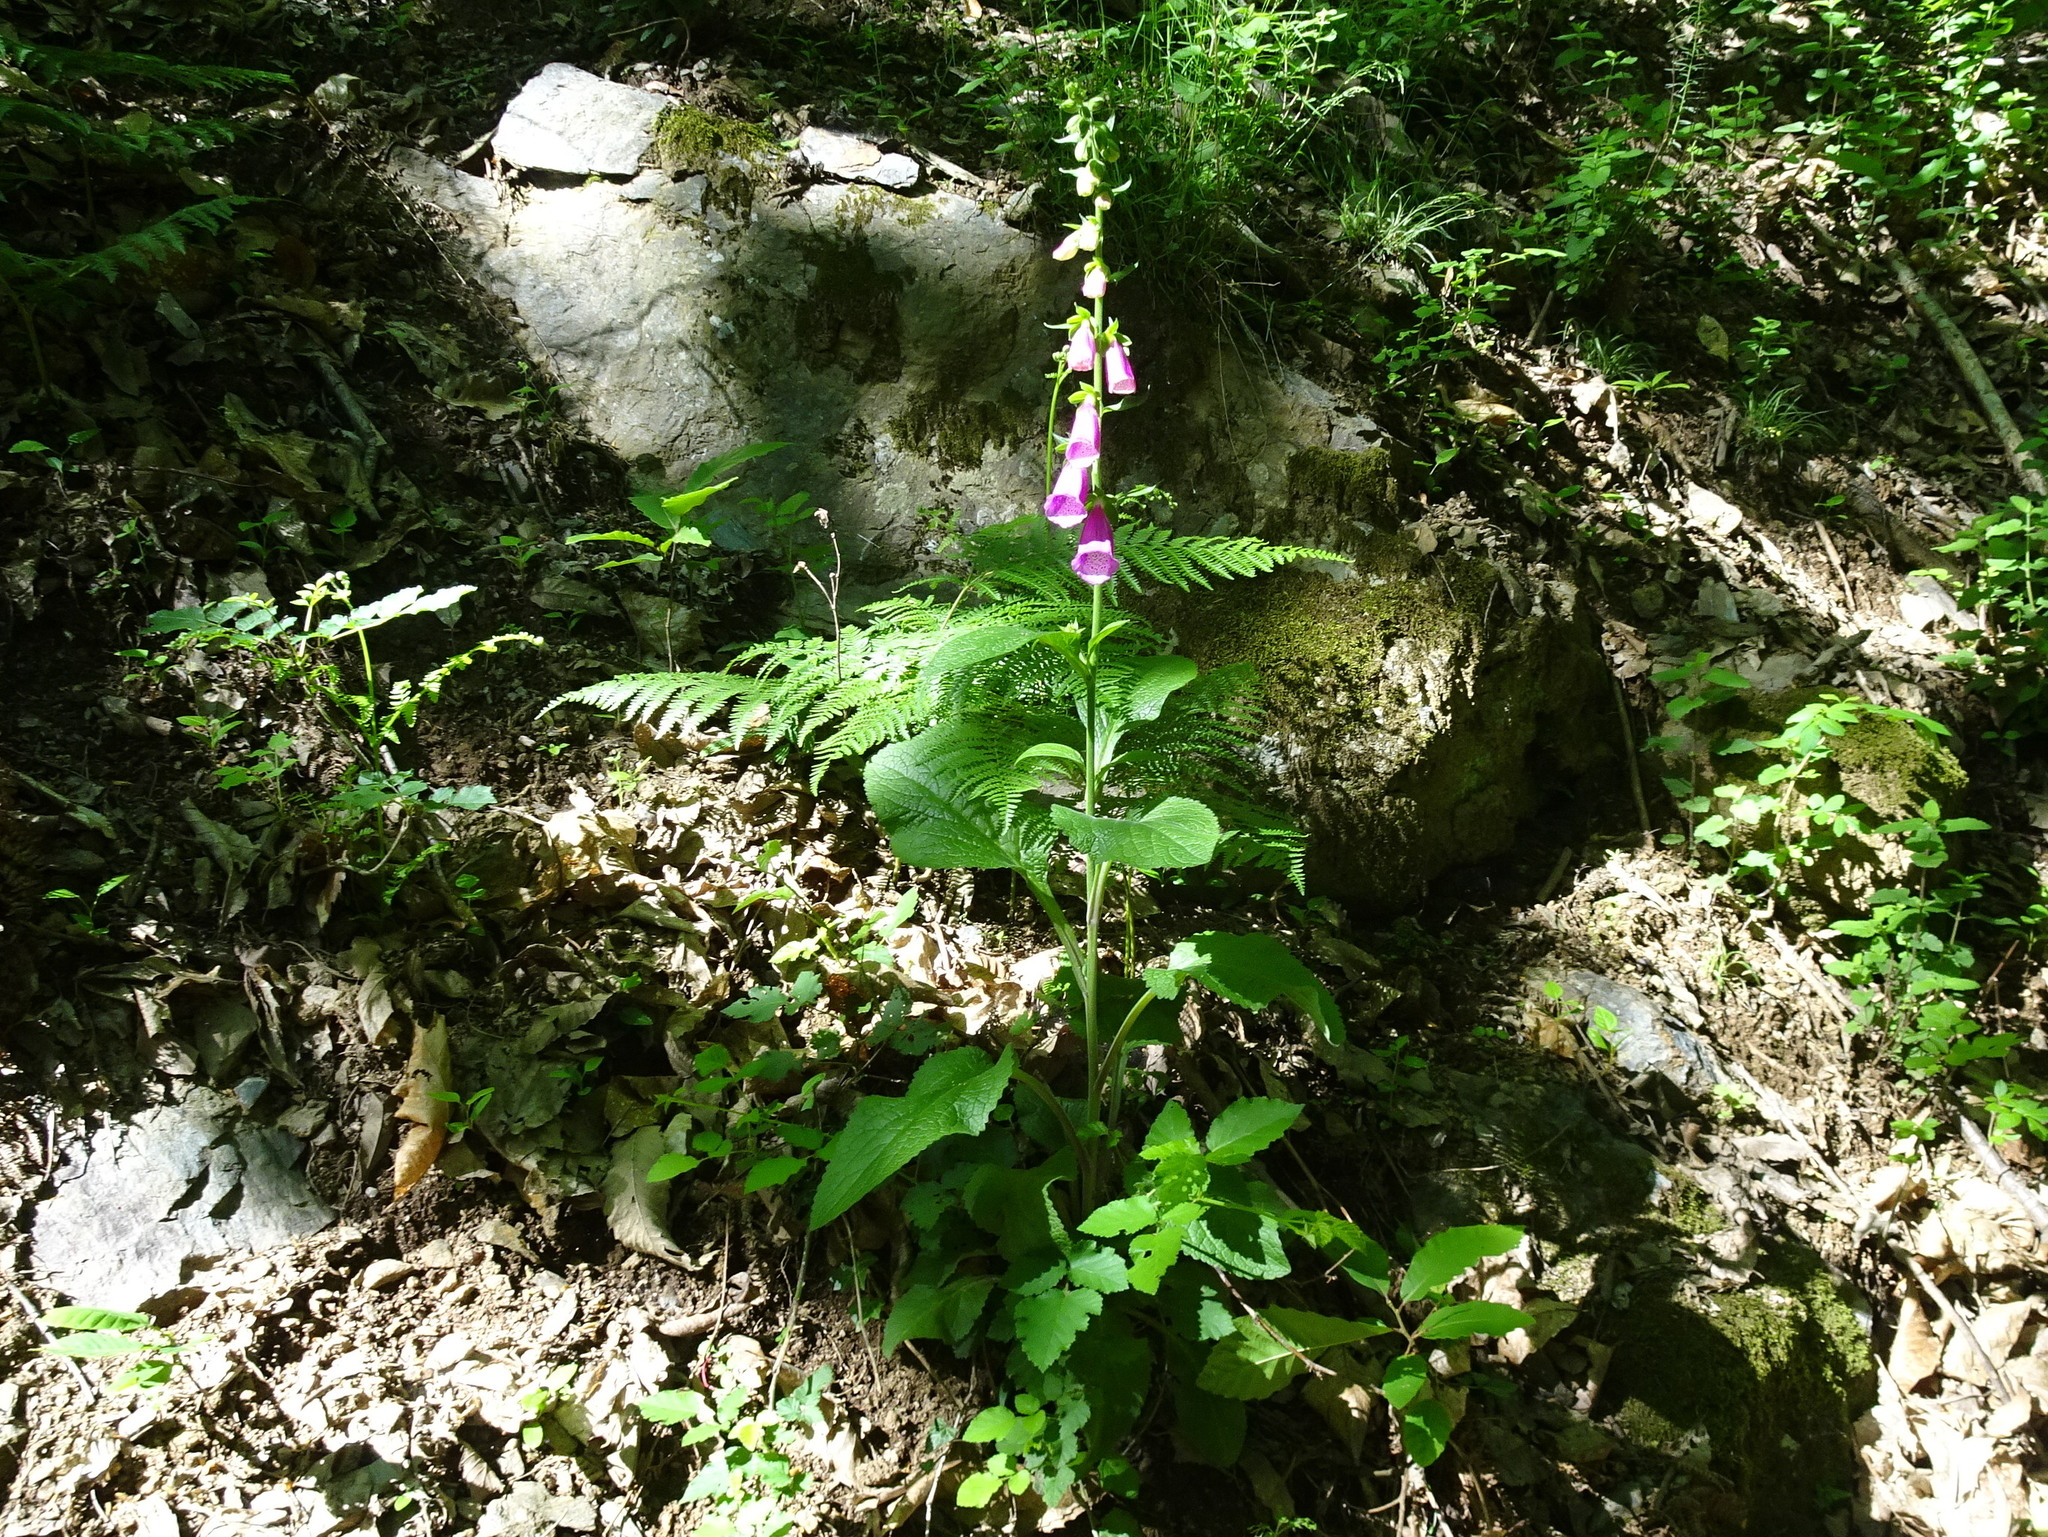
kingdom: Plantae
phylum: Tracheophyta
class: Magnoliopsida
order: Lamiales
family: Plantaginaceae
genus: Digitalis
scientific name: Digitalis purpurea
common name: Foxglove
